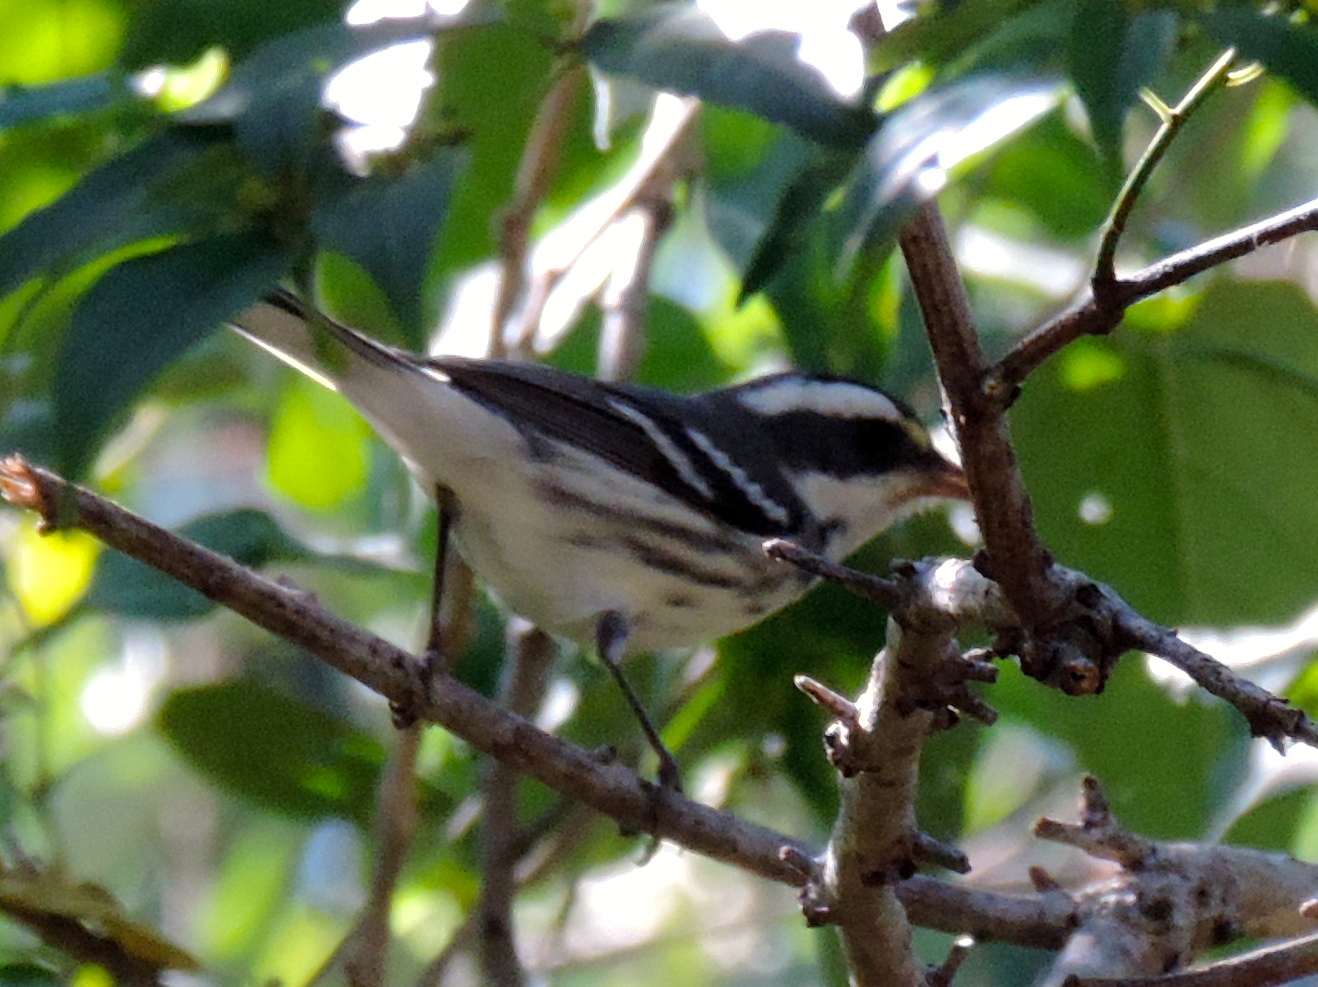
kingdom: Animalia
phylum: Chordata
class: Aves
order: Passeriformes
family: Parulidae
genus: Setophaga
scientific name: Setophaga nigrescens
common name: Black-throated gray warbler
